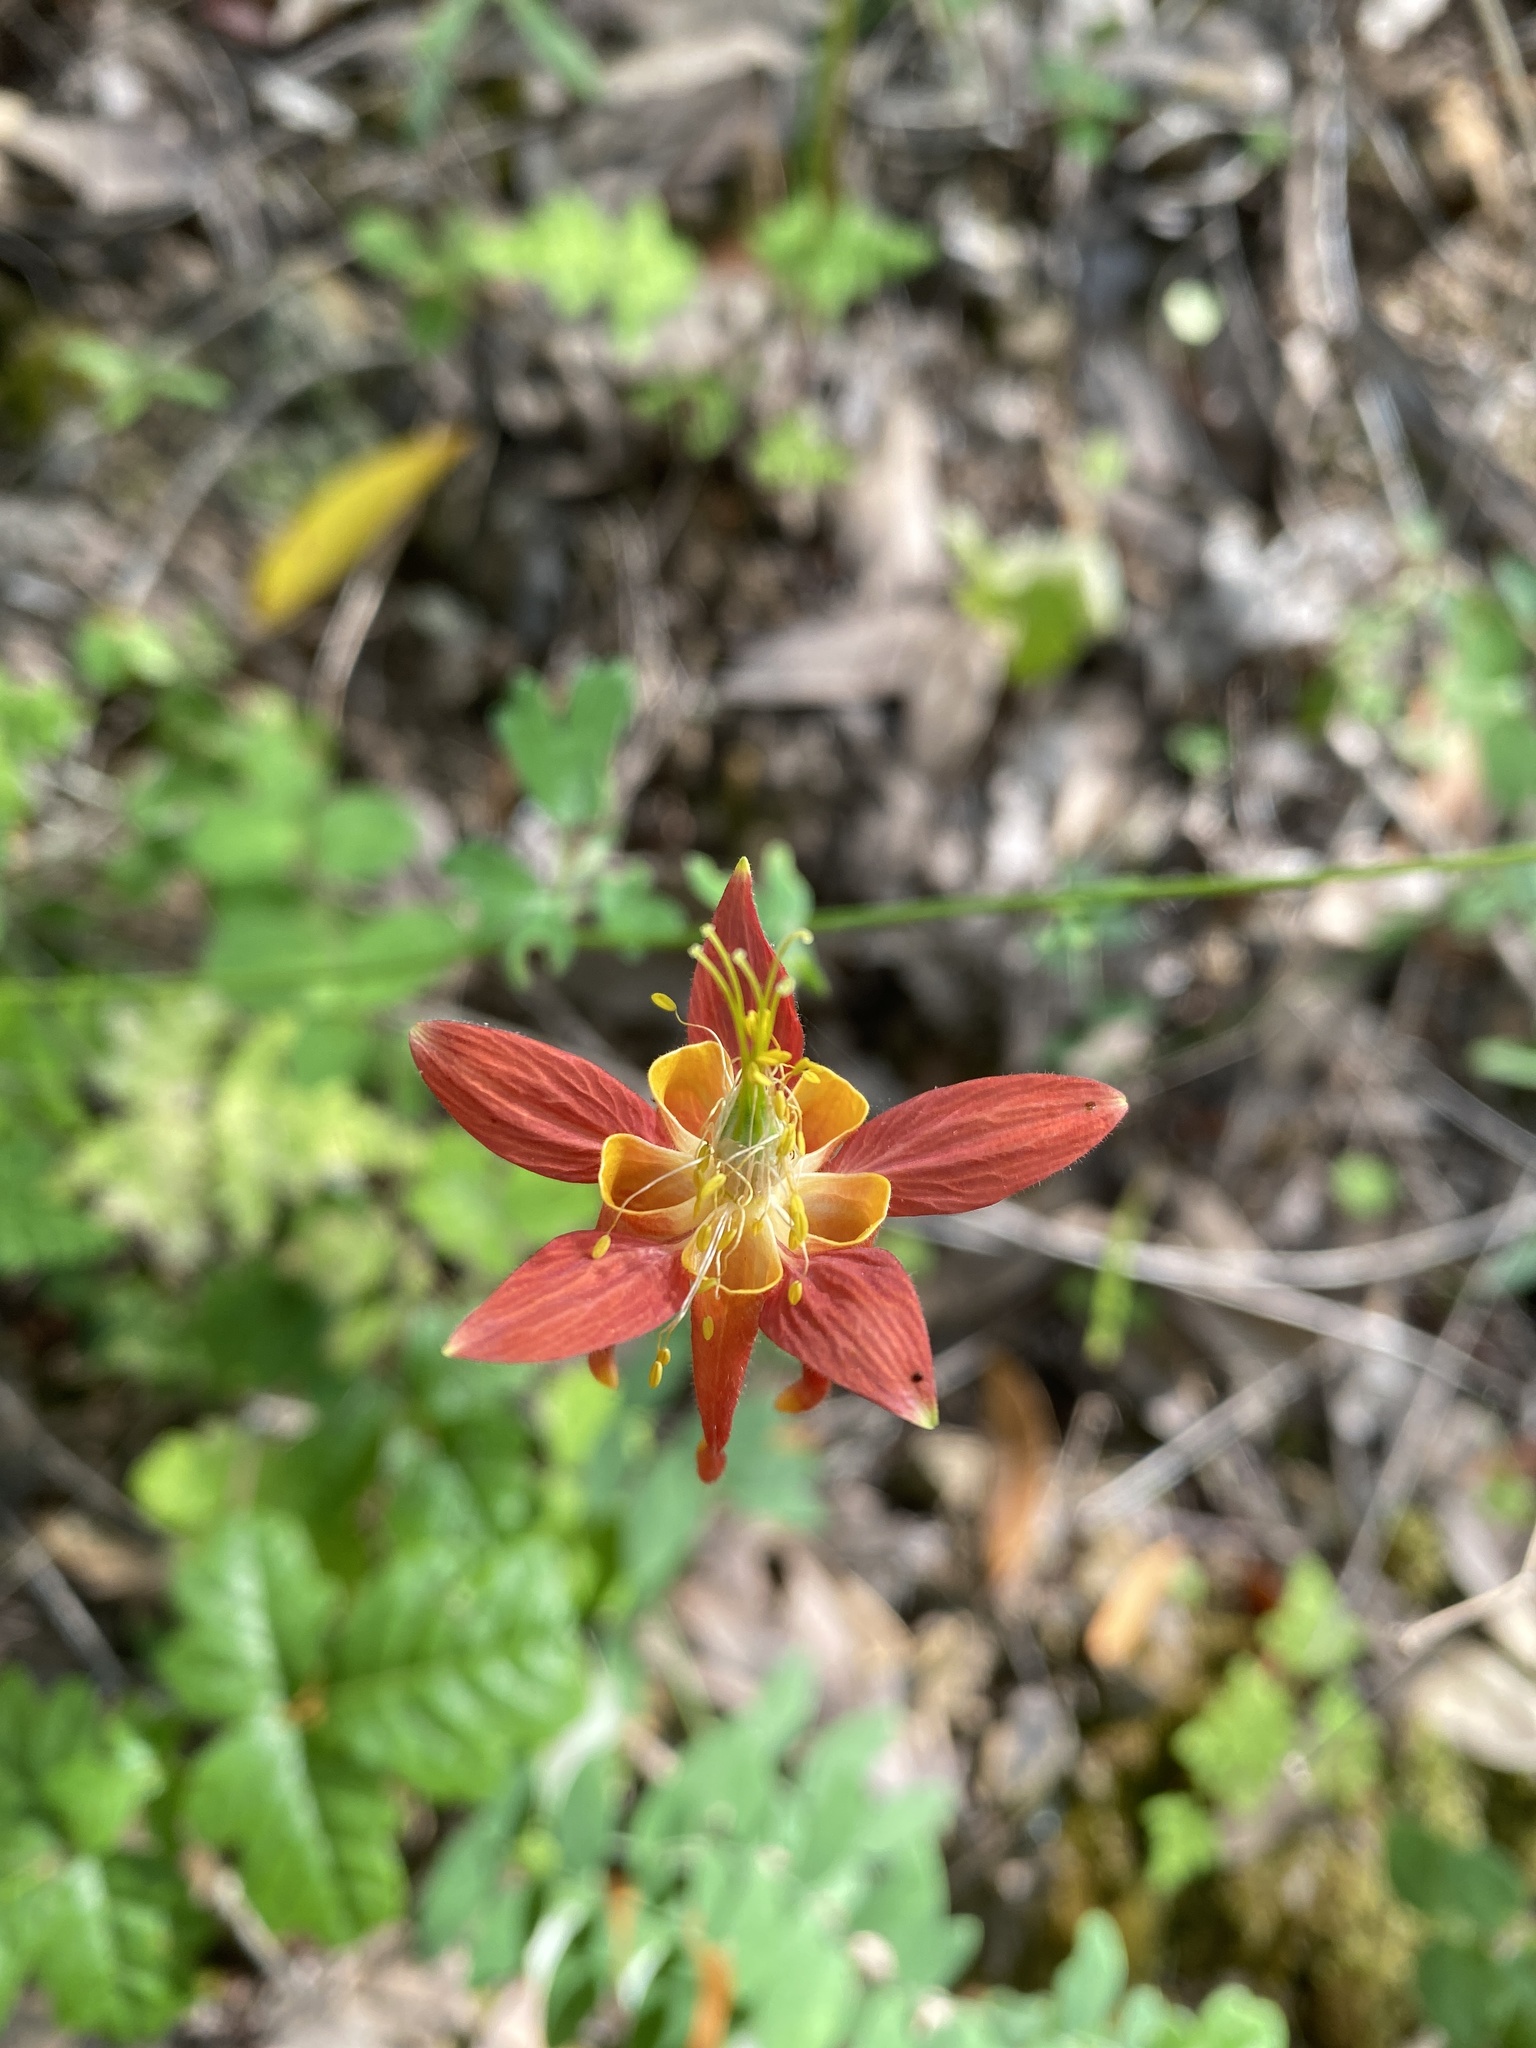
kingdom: Plantae
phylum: Tracheophyta
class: Magnoliopsida
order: Ranunculales
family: Ranunculaceae
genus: Aquilegia
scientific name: Aquilegia formosa
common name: Sitka columbine
